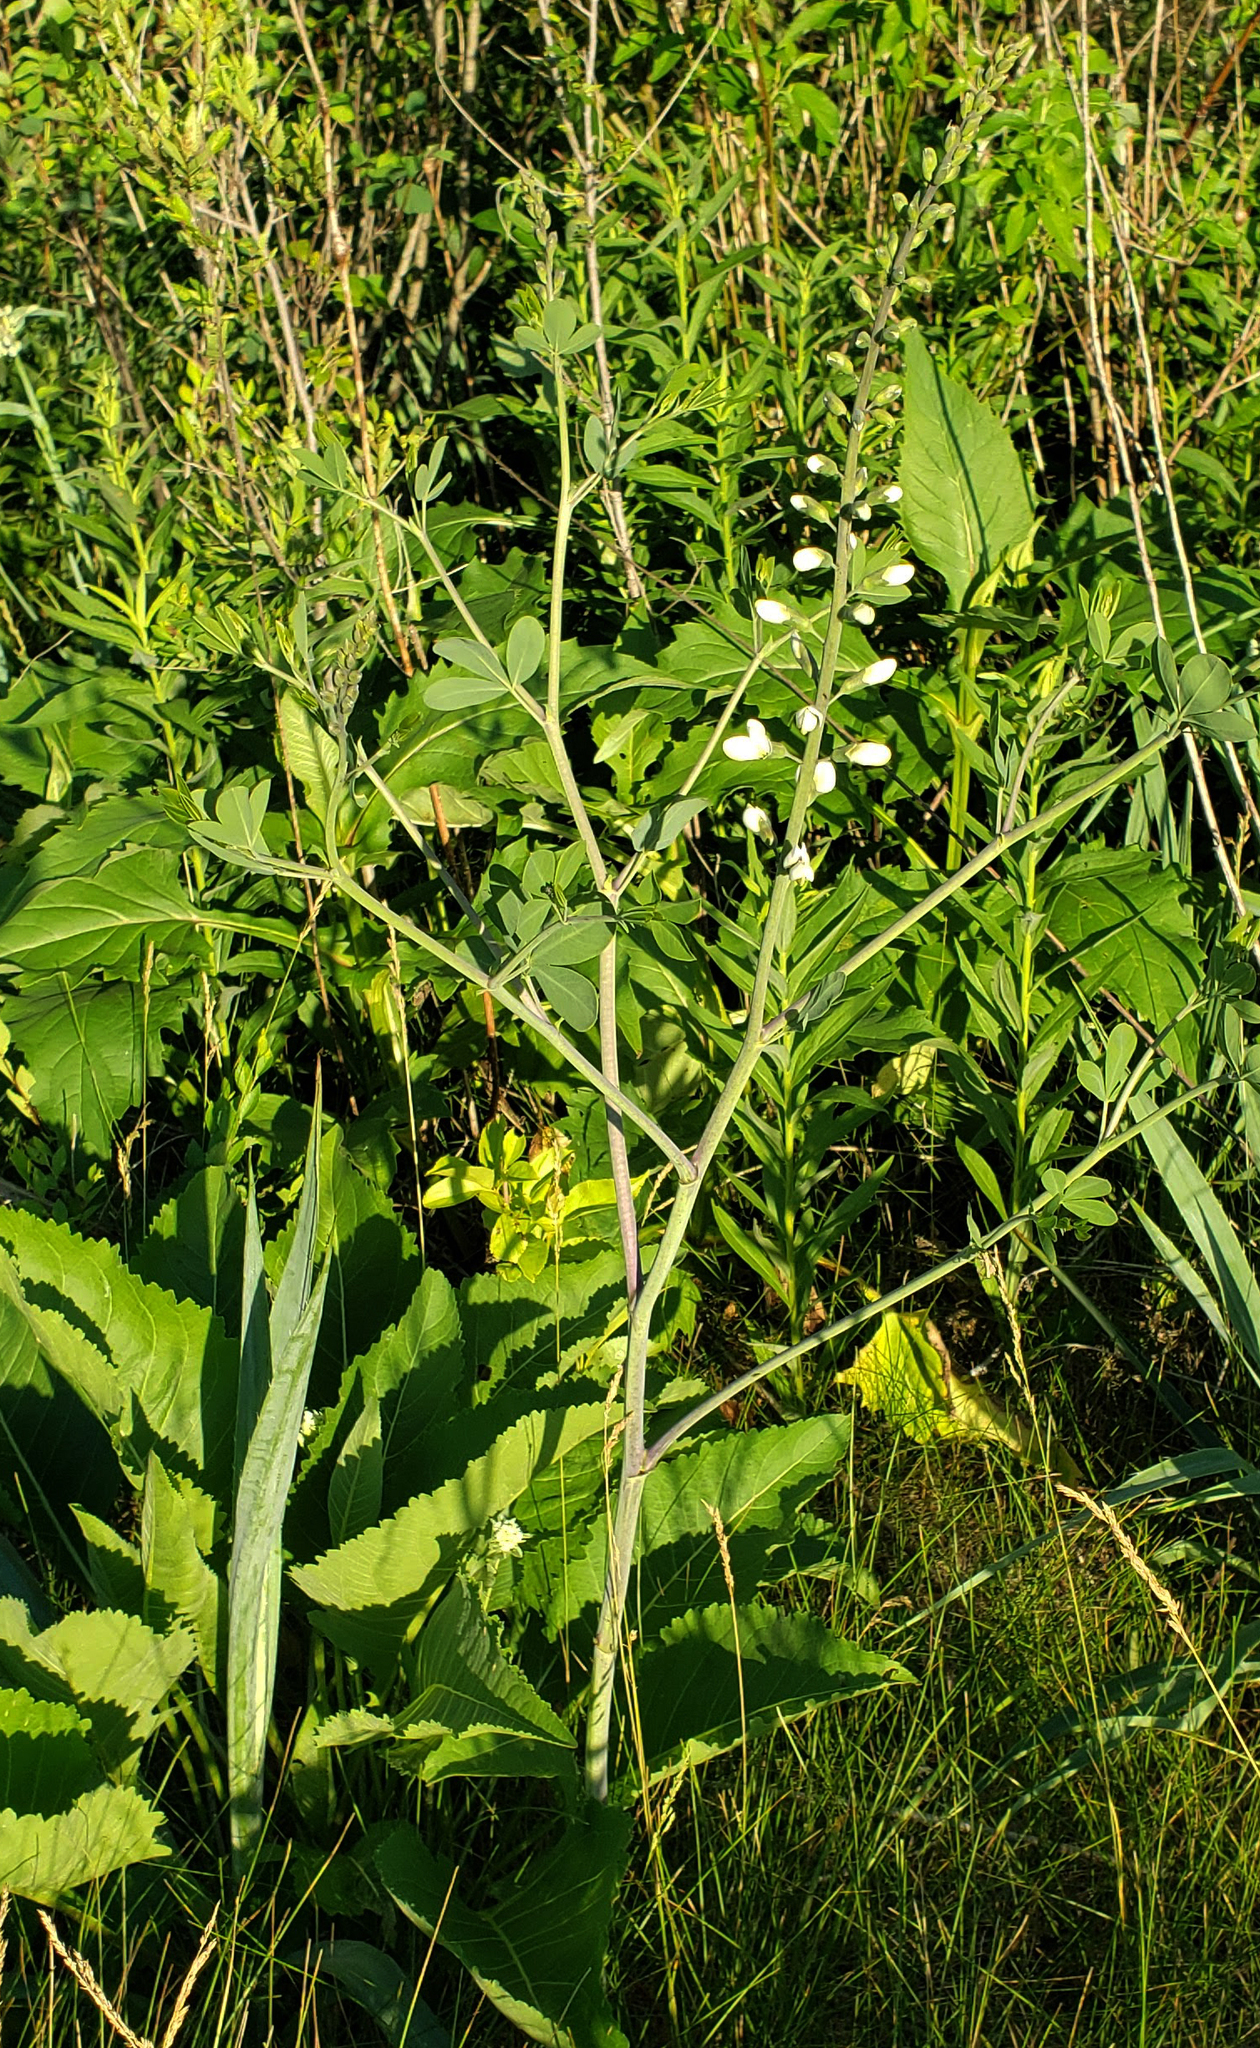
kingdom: Plantae
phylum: Tracheophyta
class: Magnoliopsida
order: Fabales
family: Fabaceae
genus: Baptisia
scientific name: Baptisia alba
